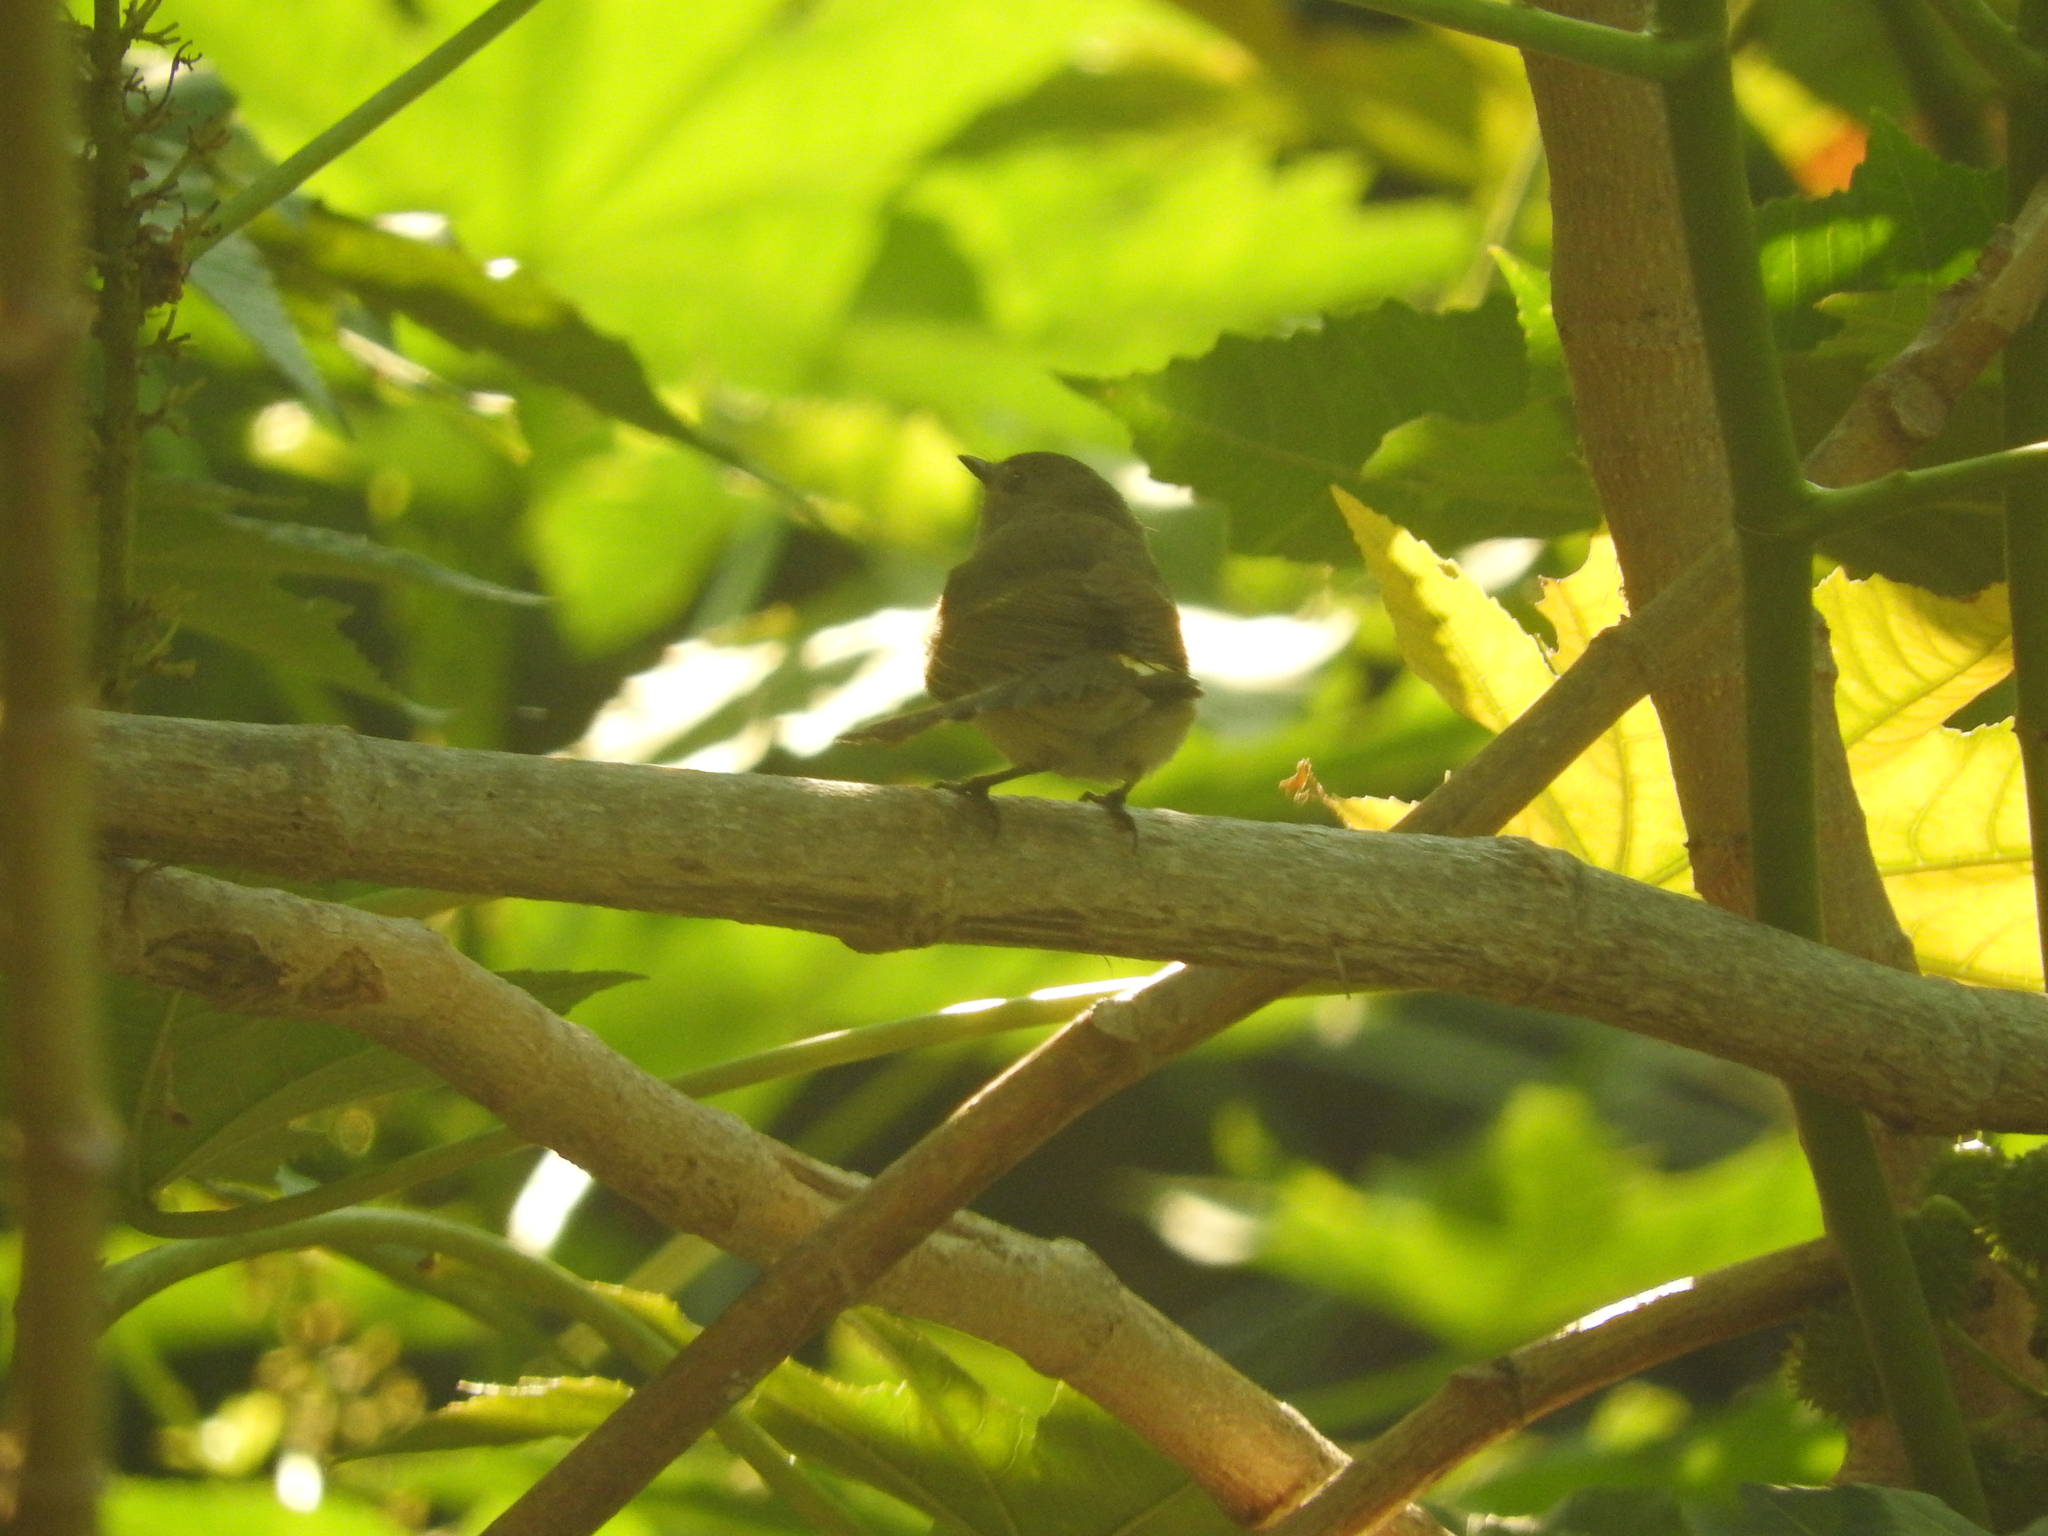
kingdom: Animalia
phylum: Chordata
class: Aves
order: Passeriformes
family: Parulidae
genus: Setophaga
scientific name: Setophaga ruticilla
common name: American redstart
